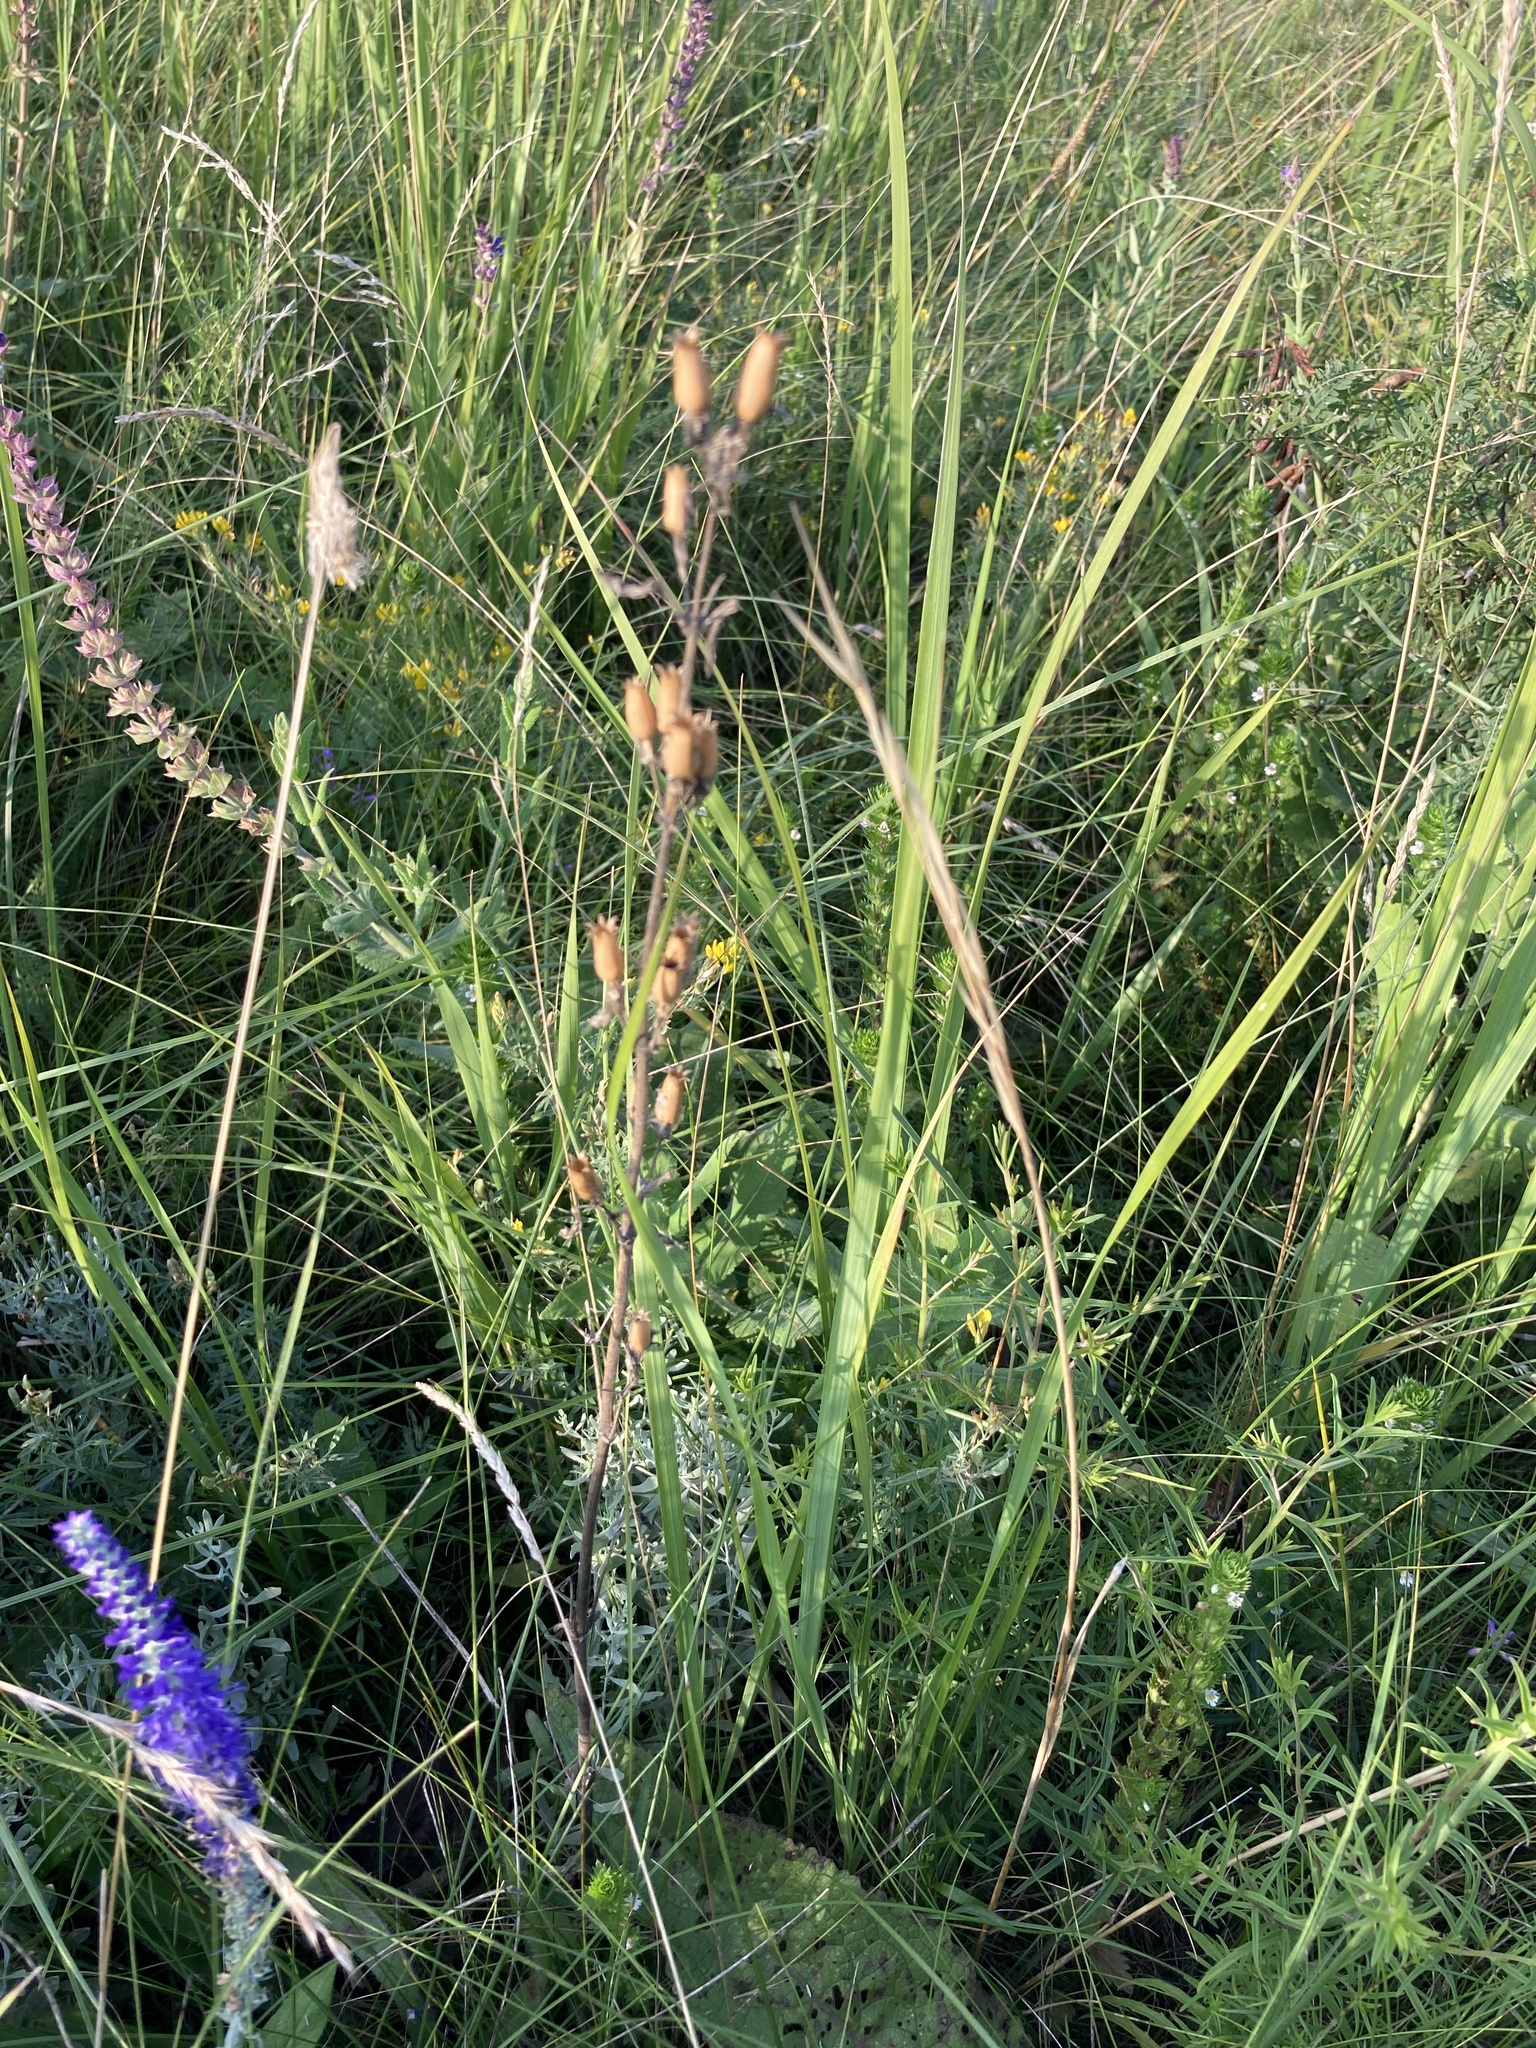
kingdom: Plantae
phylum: Tracheophyta
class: Magnoliopsida
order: Caryophyllales
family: Caryophyllaceae
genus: Silene
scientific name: Silene viscosa
